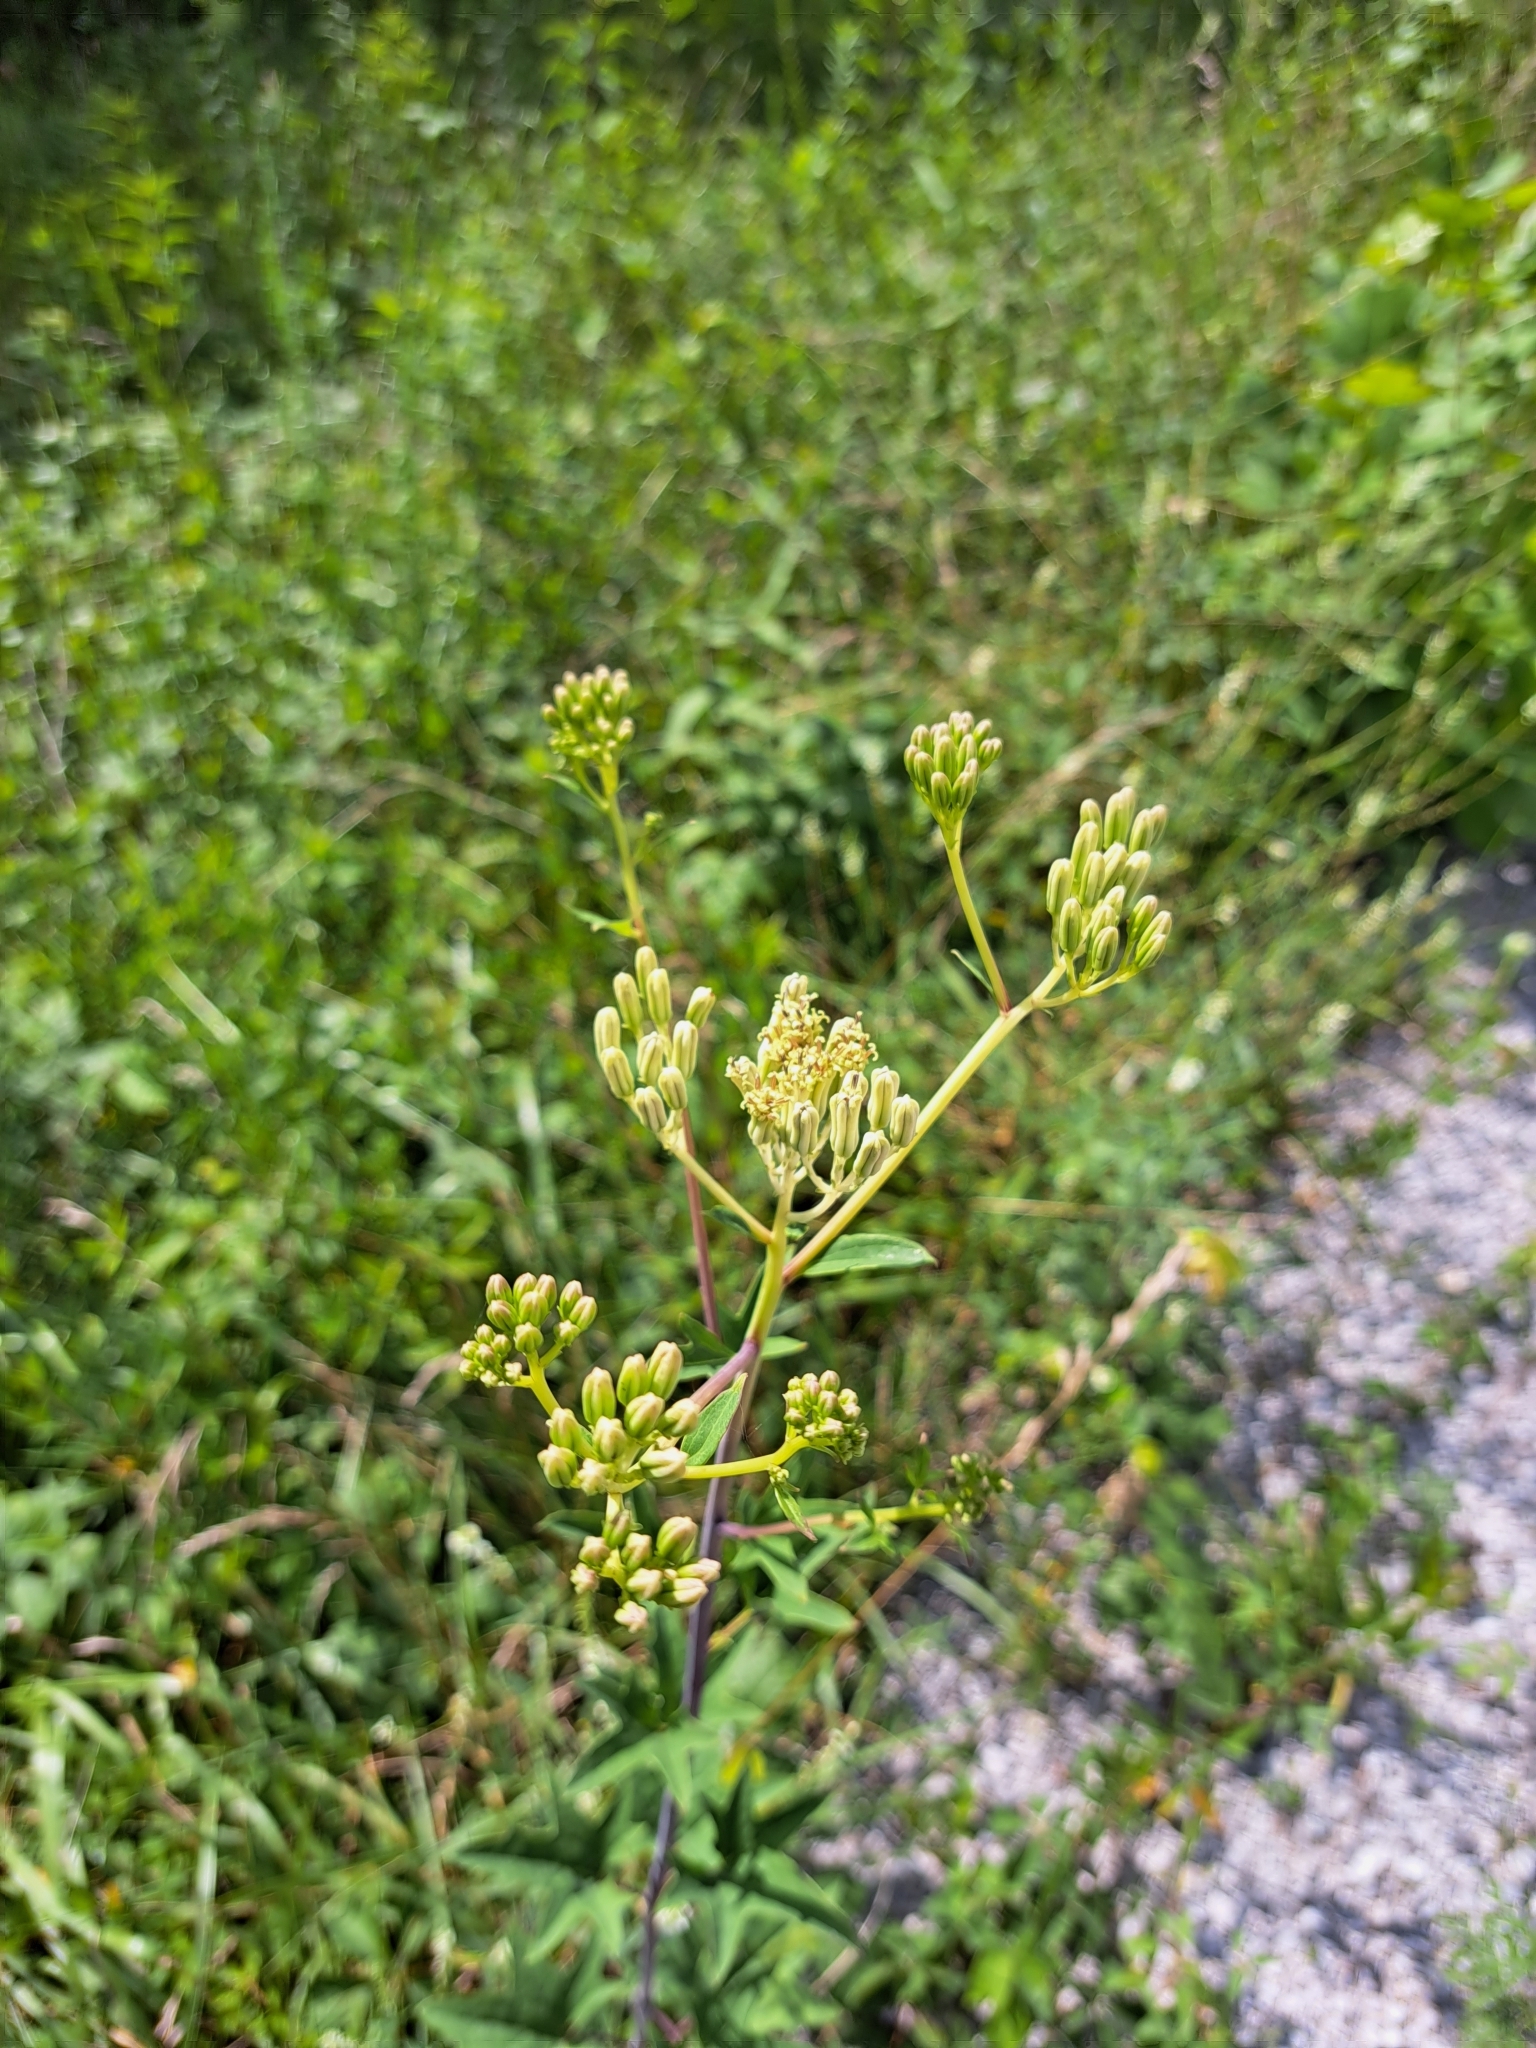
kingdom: Plantae
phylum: Tracheophyta
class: Magnoliopsida
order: Asterales
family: Asteraceae
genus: Arnoglossum
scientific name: Arnoglossum atriplicifolium
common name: Pale indian-plantain
